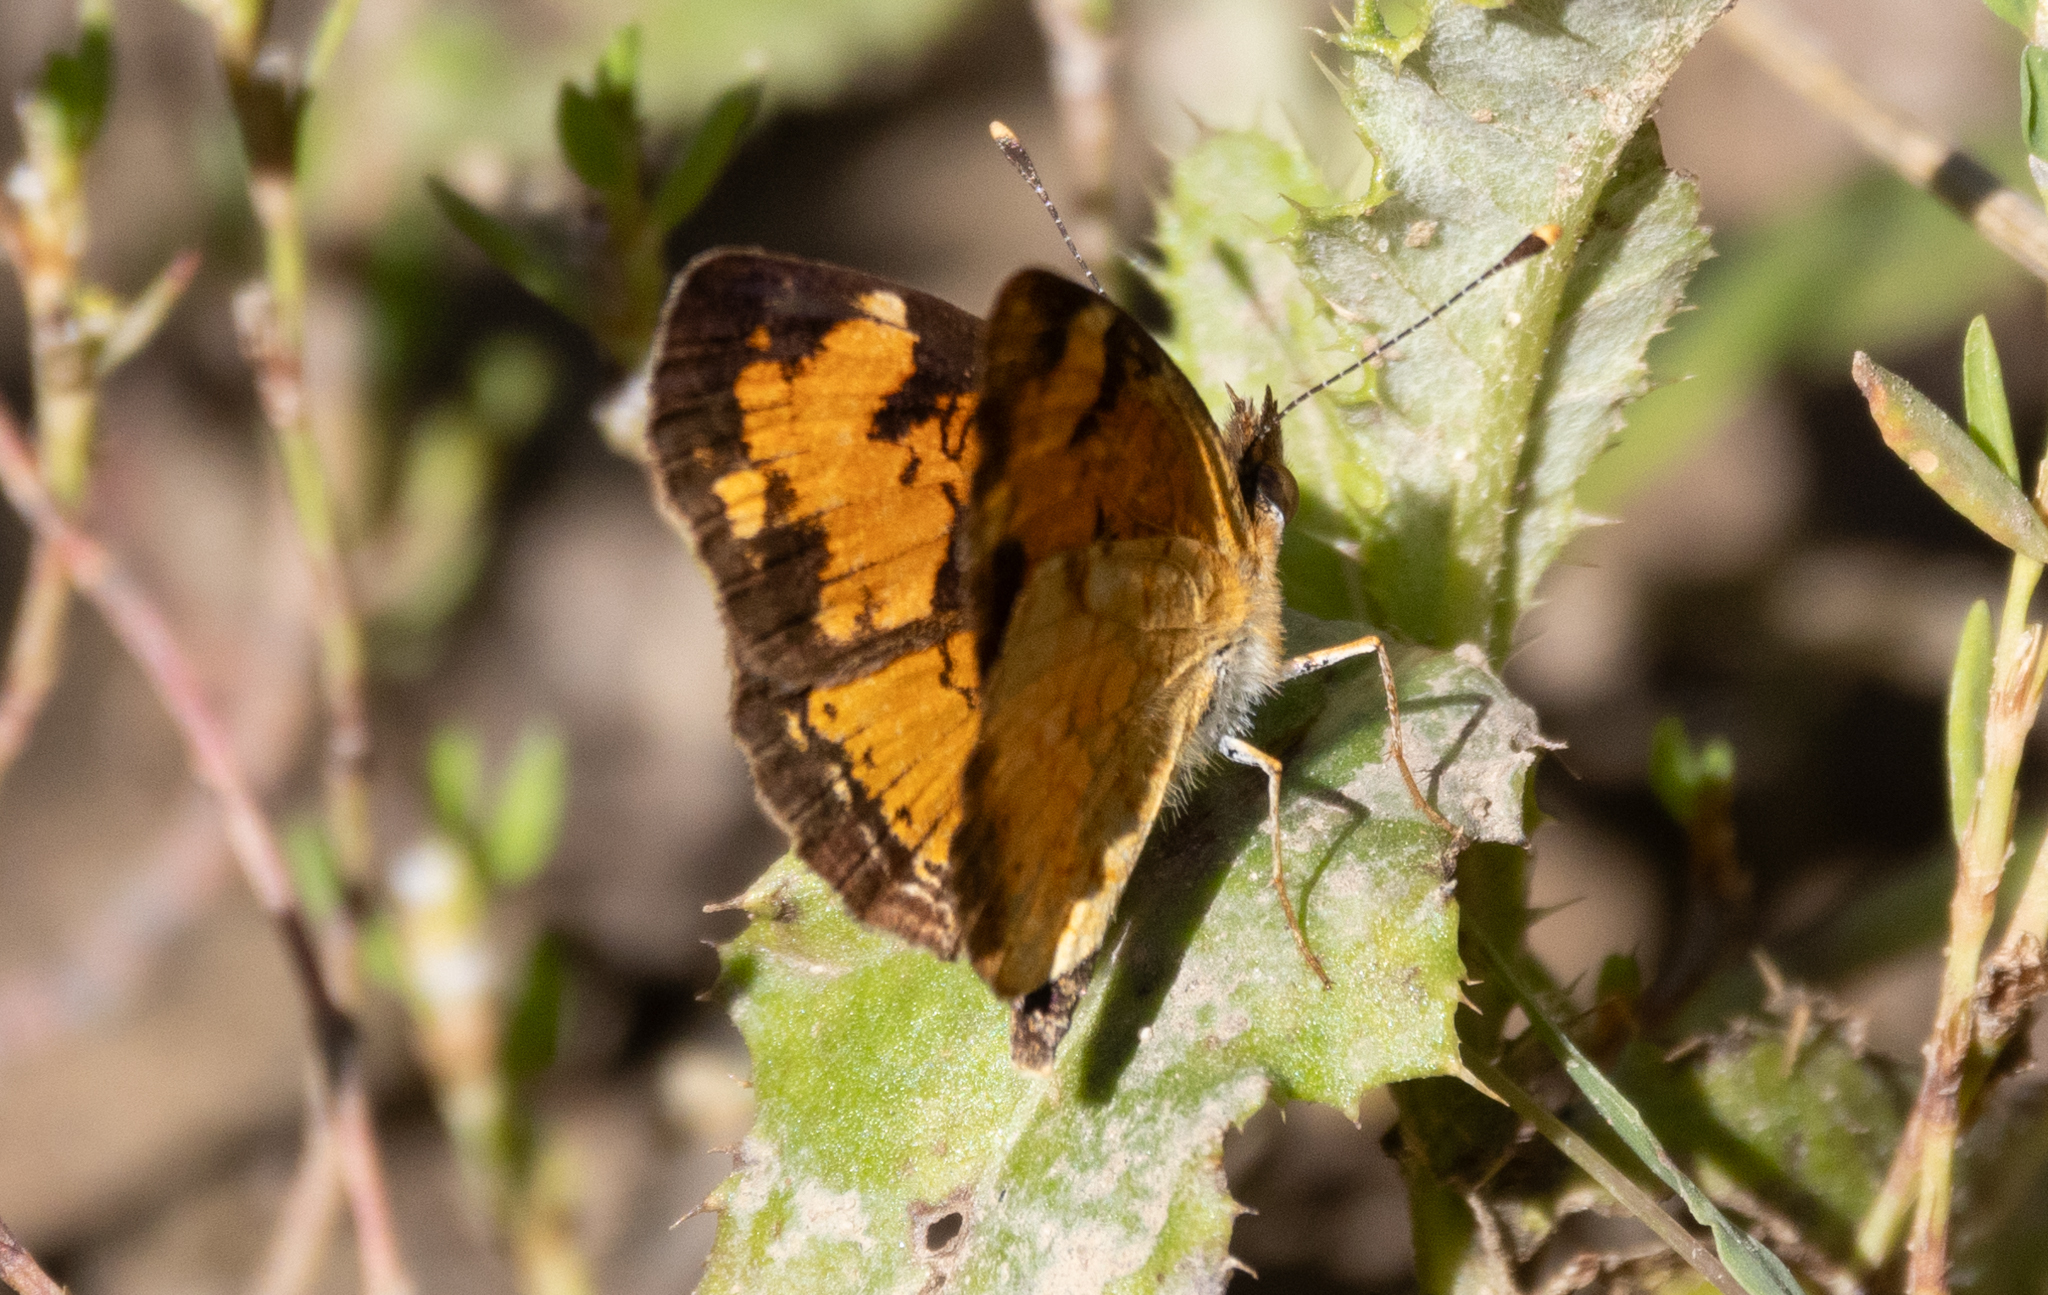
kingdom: Animalia
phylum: Arthropoda
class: Insecta
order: Lepidoptera
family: Nymphalidae
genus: Phyciodes
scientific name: Phyciodes tharos
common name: Pearl crescent
